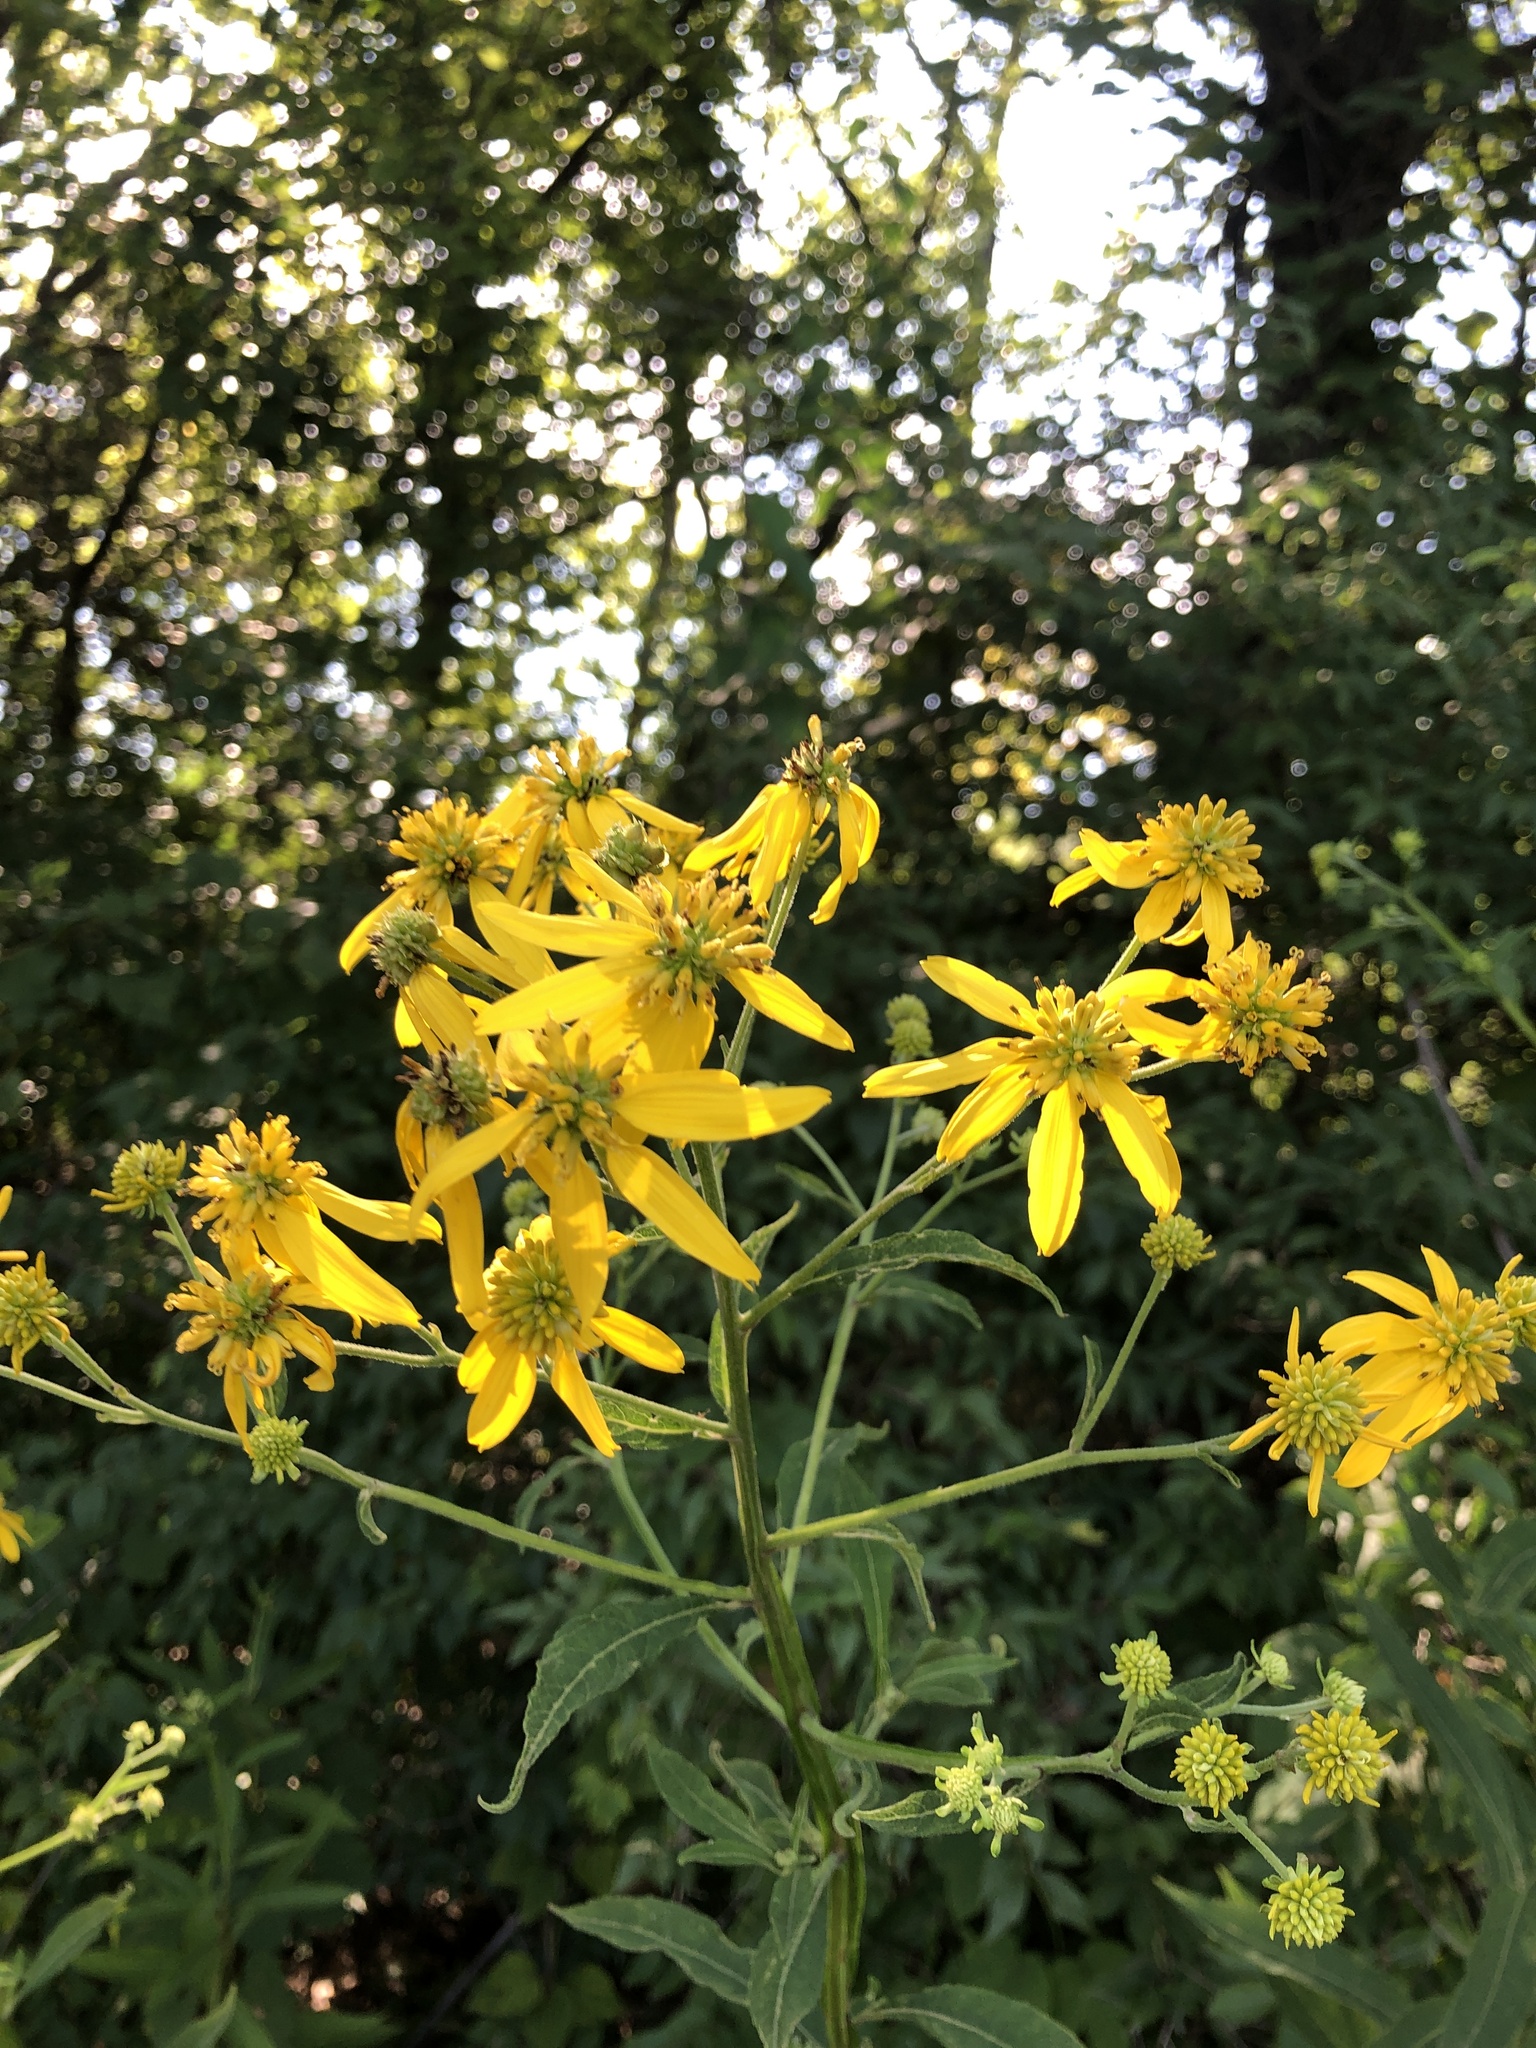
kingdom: Plantae
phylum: Tracheophyta
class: Magnoliopsida
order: Asterales
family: Asteraceae
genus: Verbesina
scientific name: Verbesina alternifolia
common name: Wingstem
